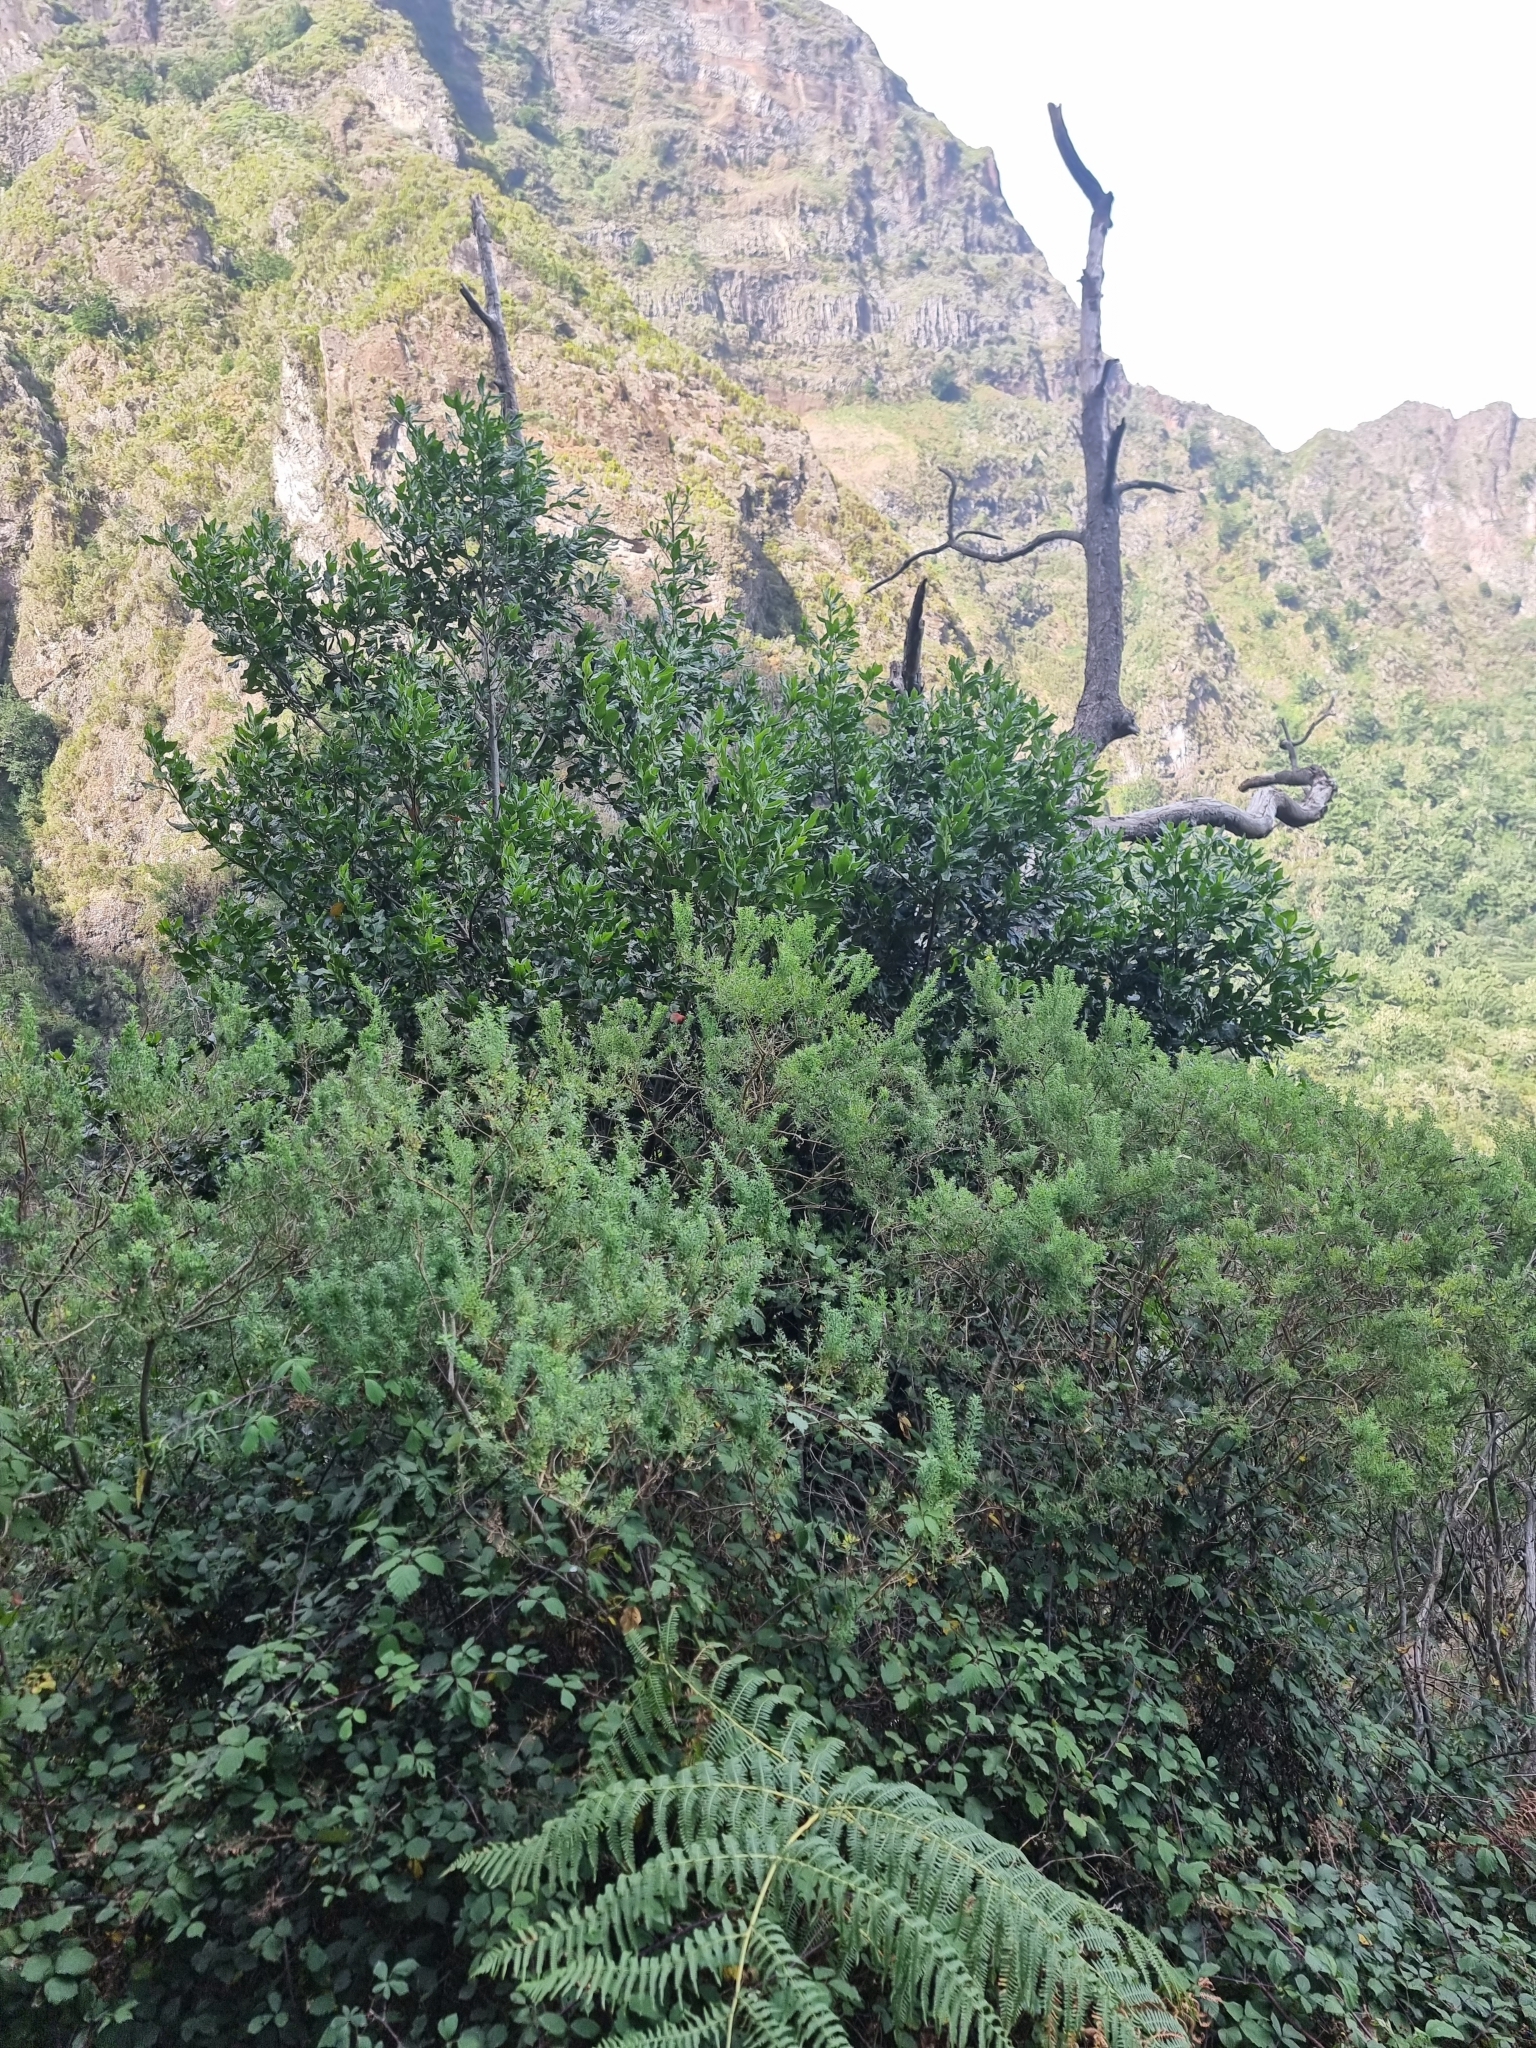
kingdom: Plantae
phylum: Tracheophyta
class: Magnoliopsida
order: Laurales
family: Lauraceae
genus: Mespilodaphne
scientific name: Mespilodaphne foetens
